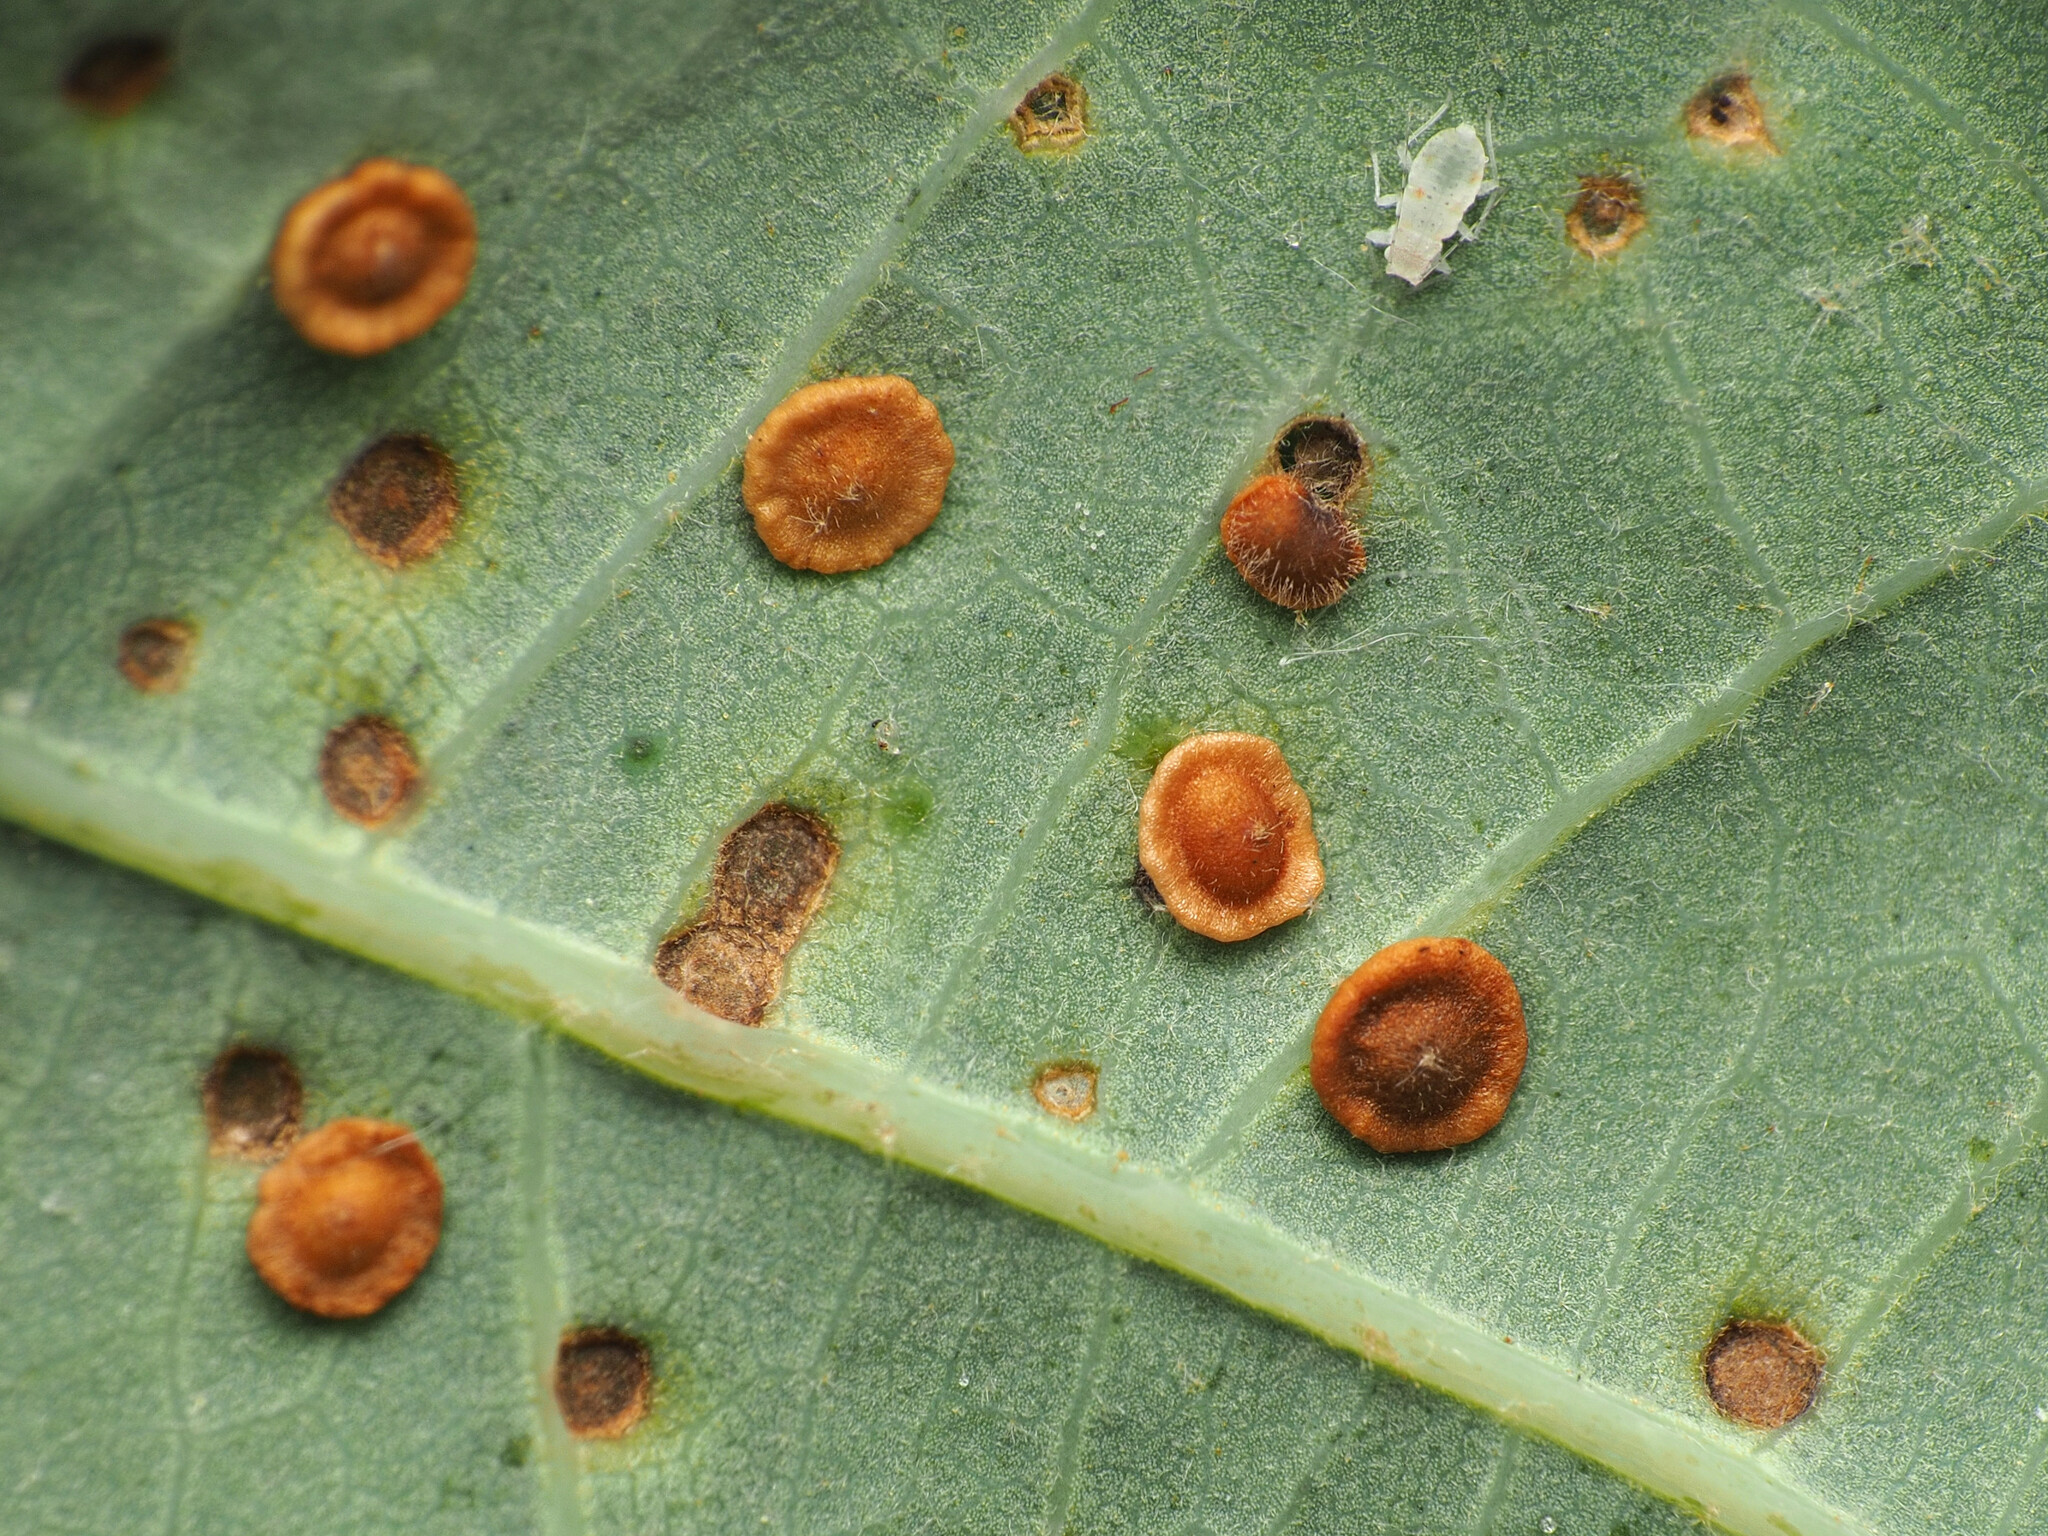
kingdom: Animalia
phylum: Arthropoda
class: Insecta
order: Hymenoptera
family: Cynipidae
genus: Neuroterus
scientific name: Neuroterus
